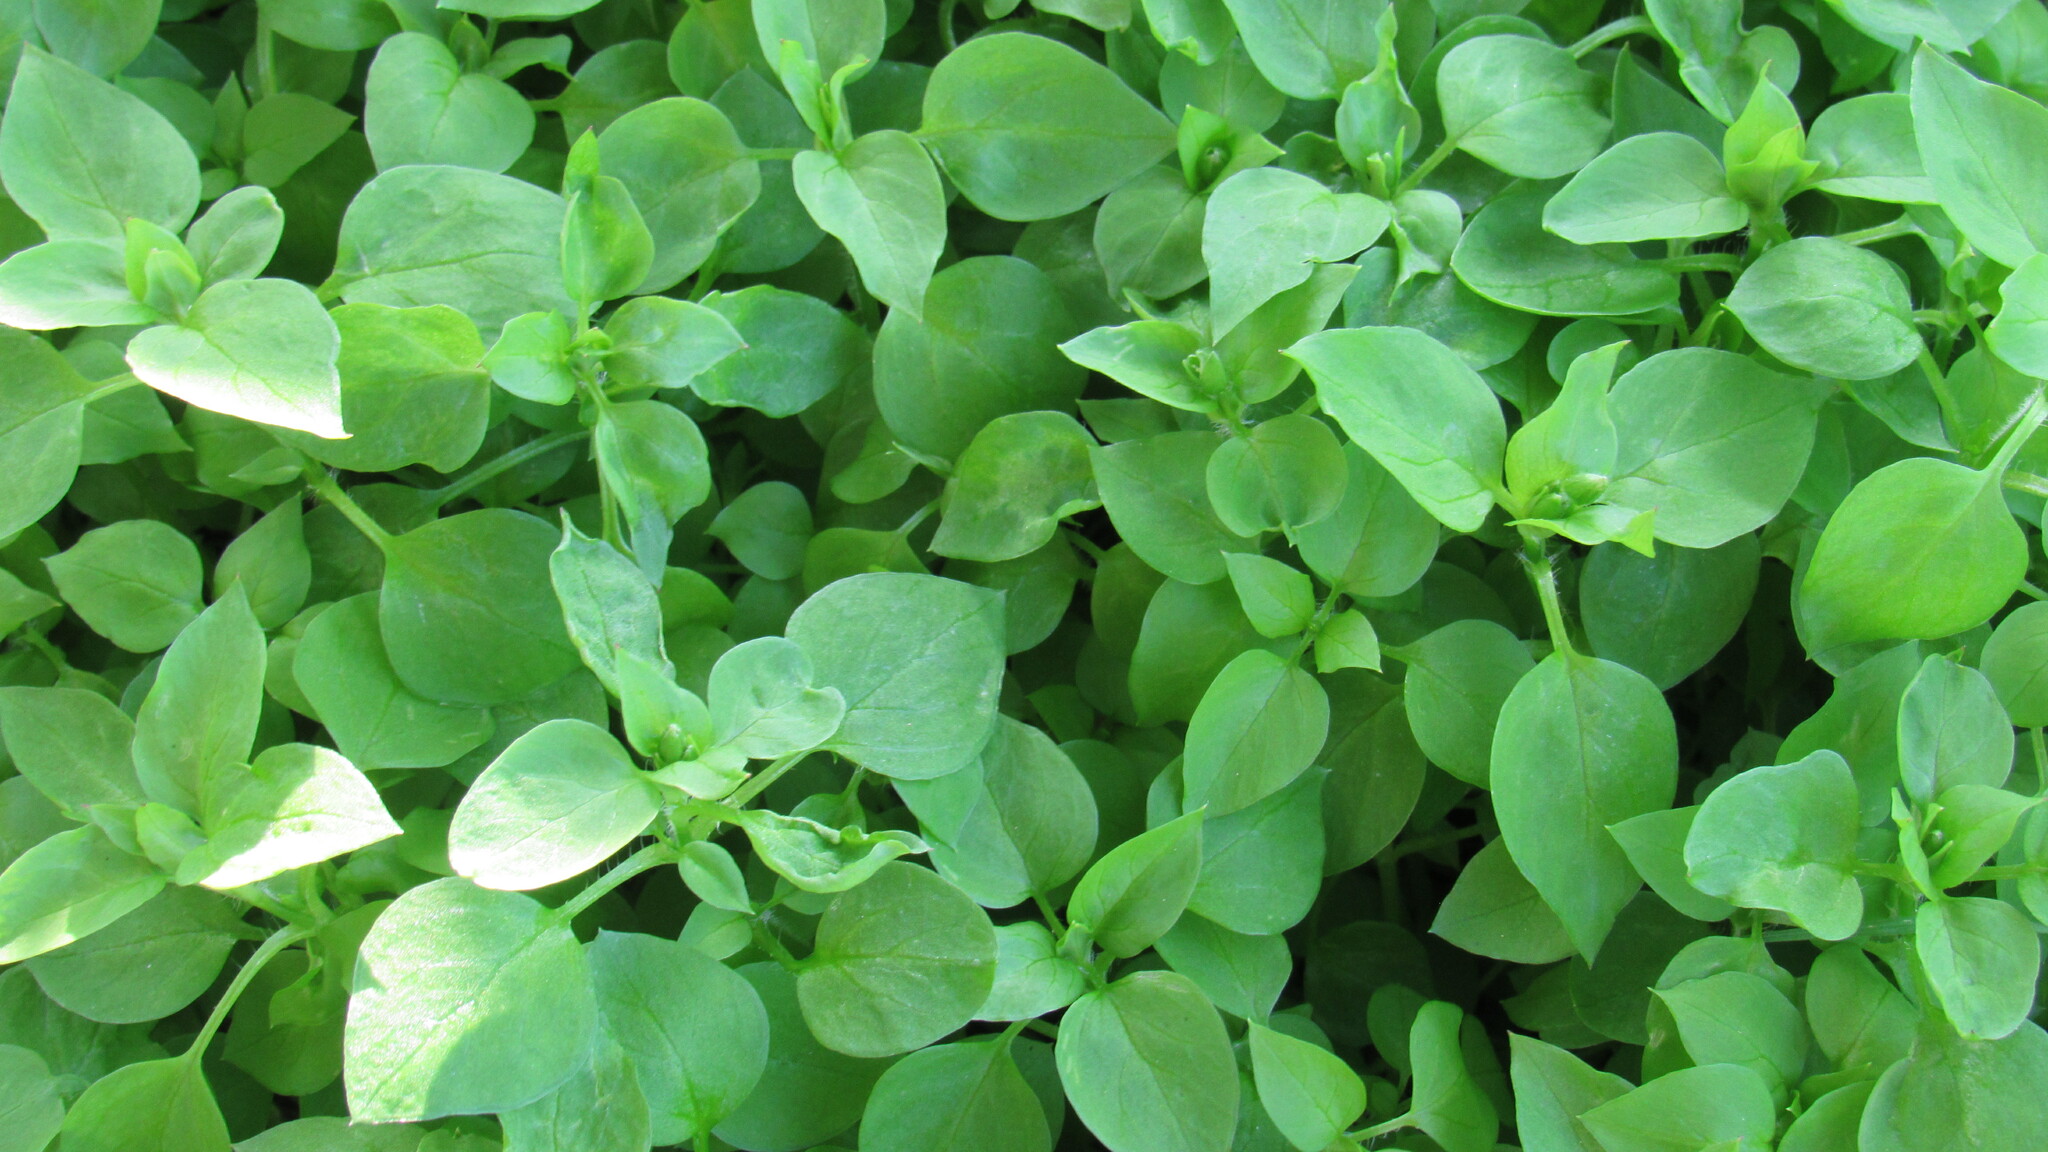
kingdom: Plantae
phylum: Tracheophyta
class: Magnoliopsida
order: Caryophyllales
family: Caryophyllaceae
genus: Stellaria
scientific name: Stellaria media
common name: Common chickweed
